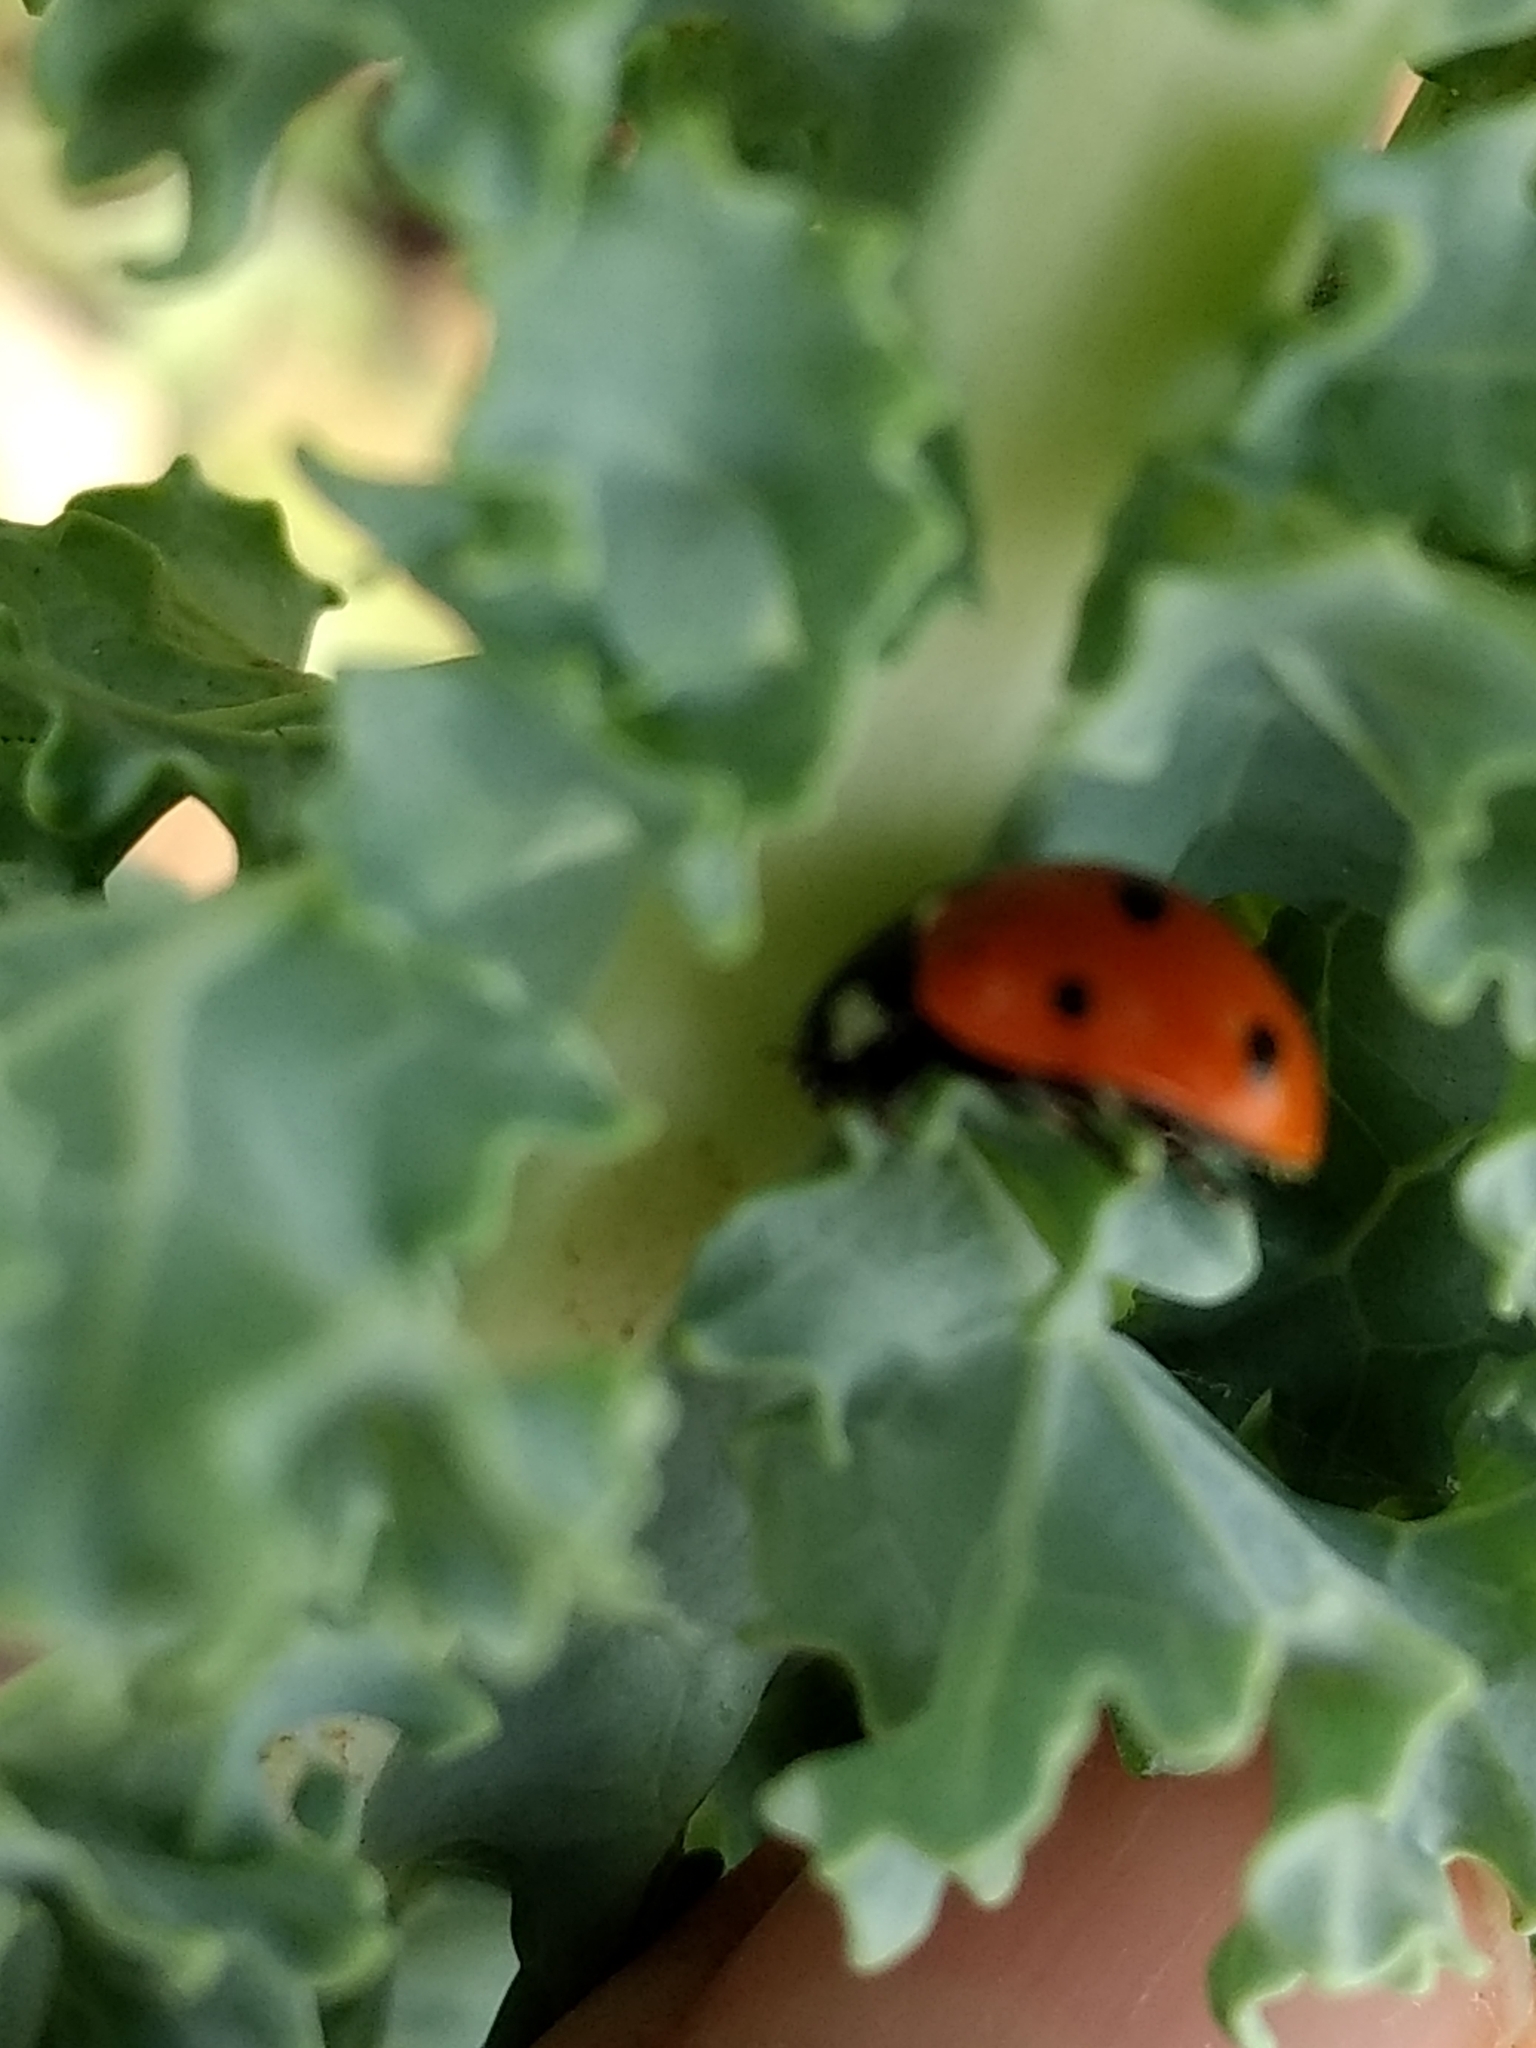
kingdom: Animalia
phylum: Arthropoda
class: Insecta
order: Coleoptera
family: Coccinellidae
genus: Coccinella
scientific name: Coccinella septempunctata
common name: Sevenspotted lady beetle
